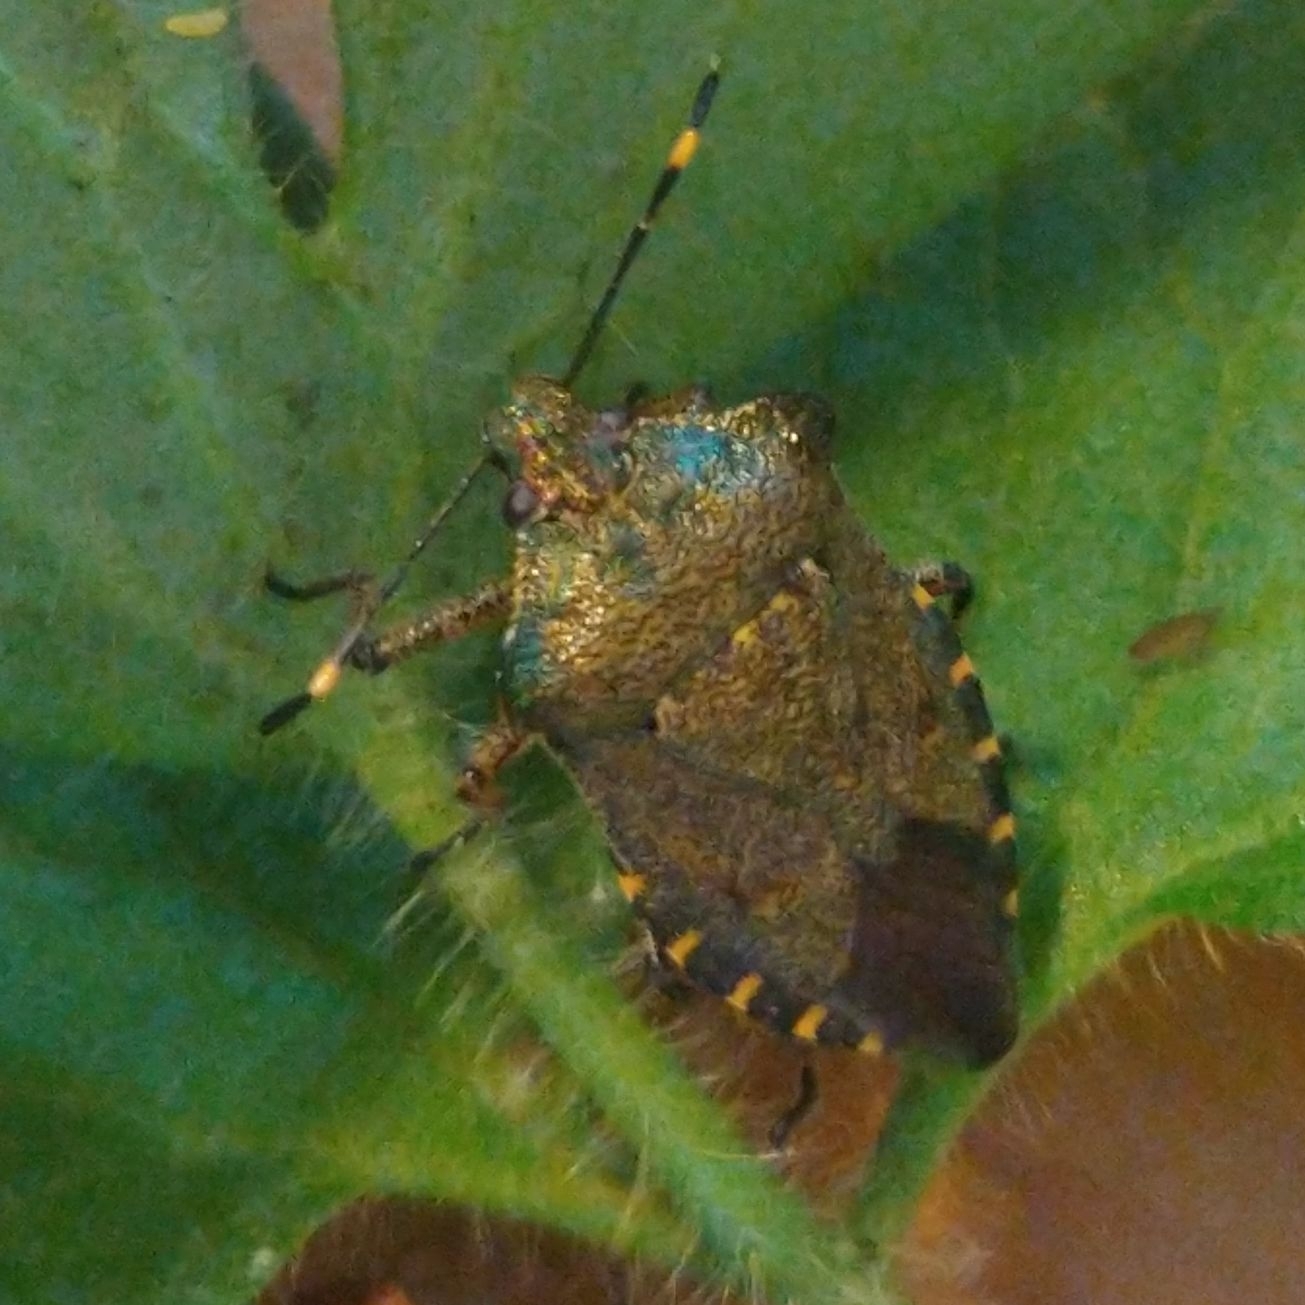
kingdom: Animalia
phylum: Arthropoda
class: Insecta
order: Hemiptera
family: Pentatomidae
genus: Troilus
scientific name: Troilus luridus
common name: Bronze shieldbug
